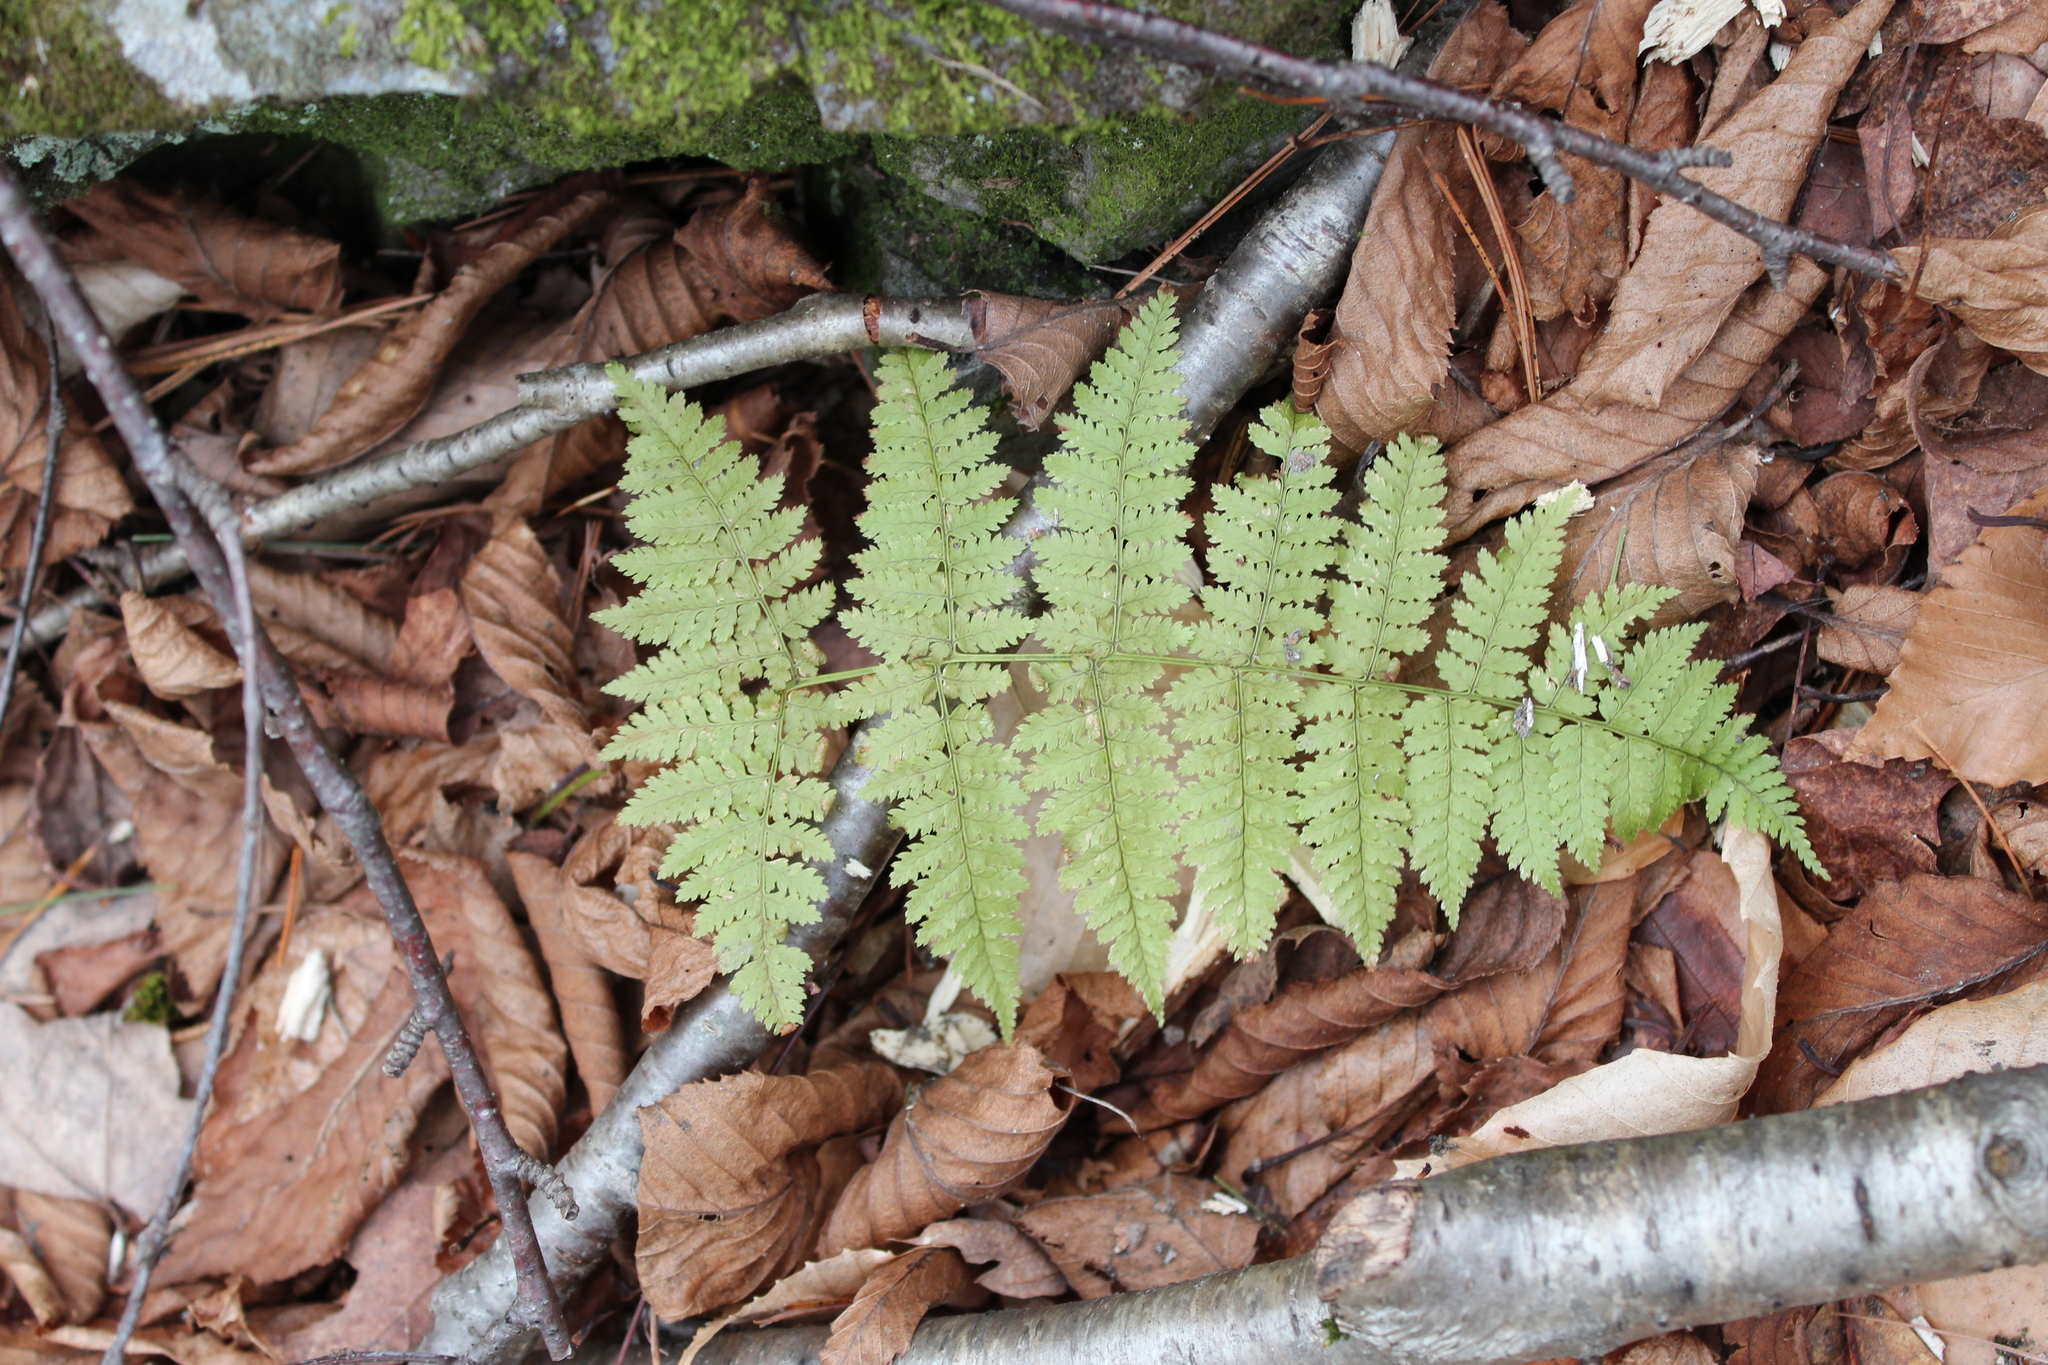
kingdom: Plantae
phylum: Tracheophyta
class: Polypodiopsida
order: Polypodiales
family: Dryopteridaceae
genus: Dryopteris
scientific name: Dryopteris intermedia
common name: Evergreen wood fern
